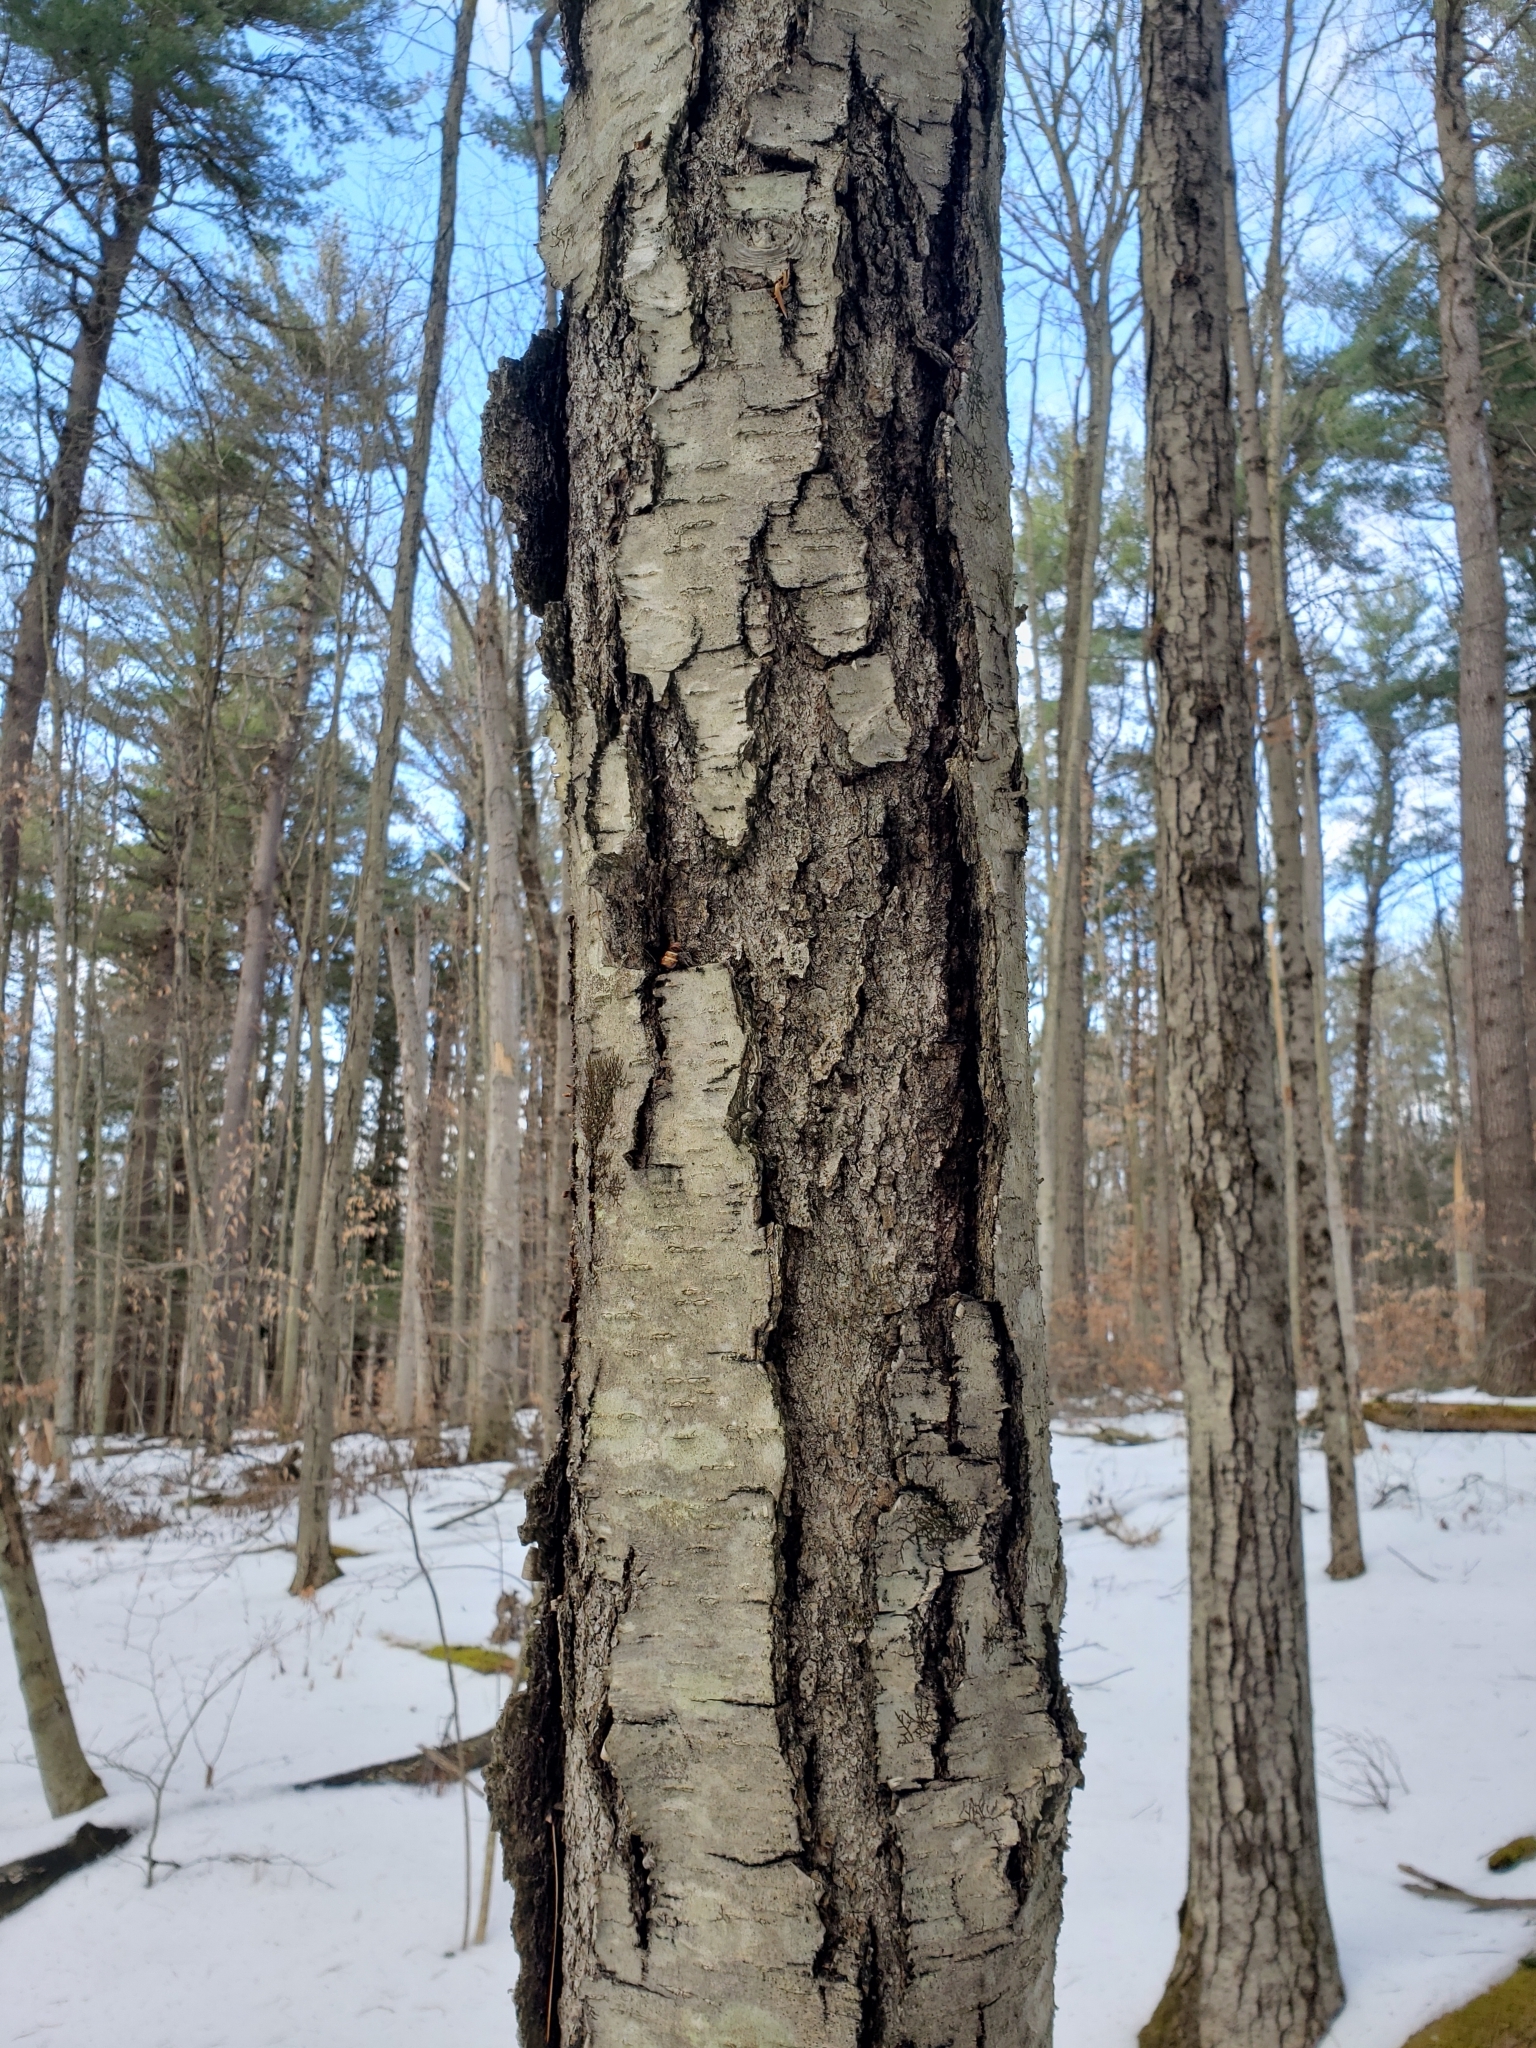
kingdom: Plantae
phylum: Tracheophyta
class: Magnoliopsida
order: Fagales
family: Betulaceae
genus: Betula
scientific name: Betula lenta
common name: Black birch
